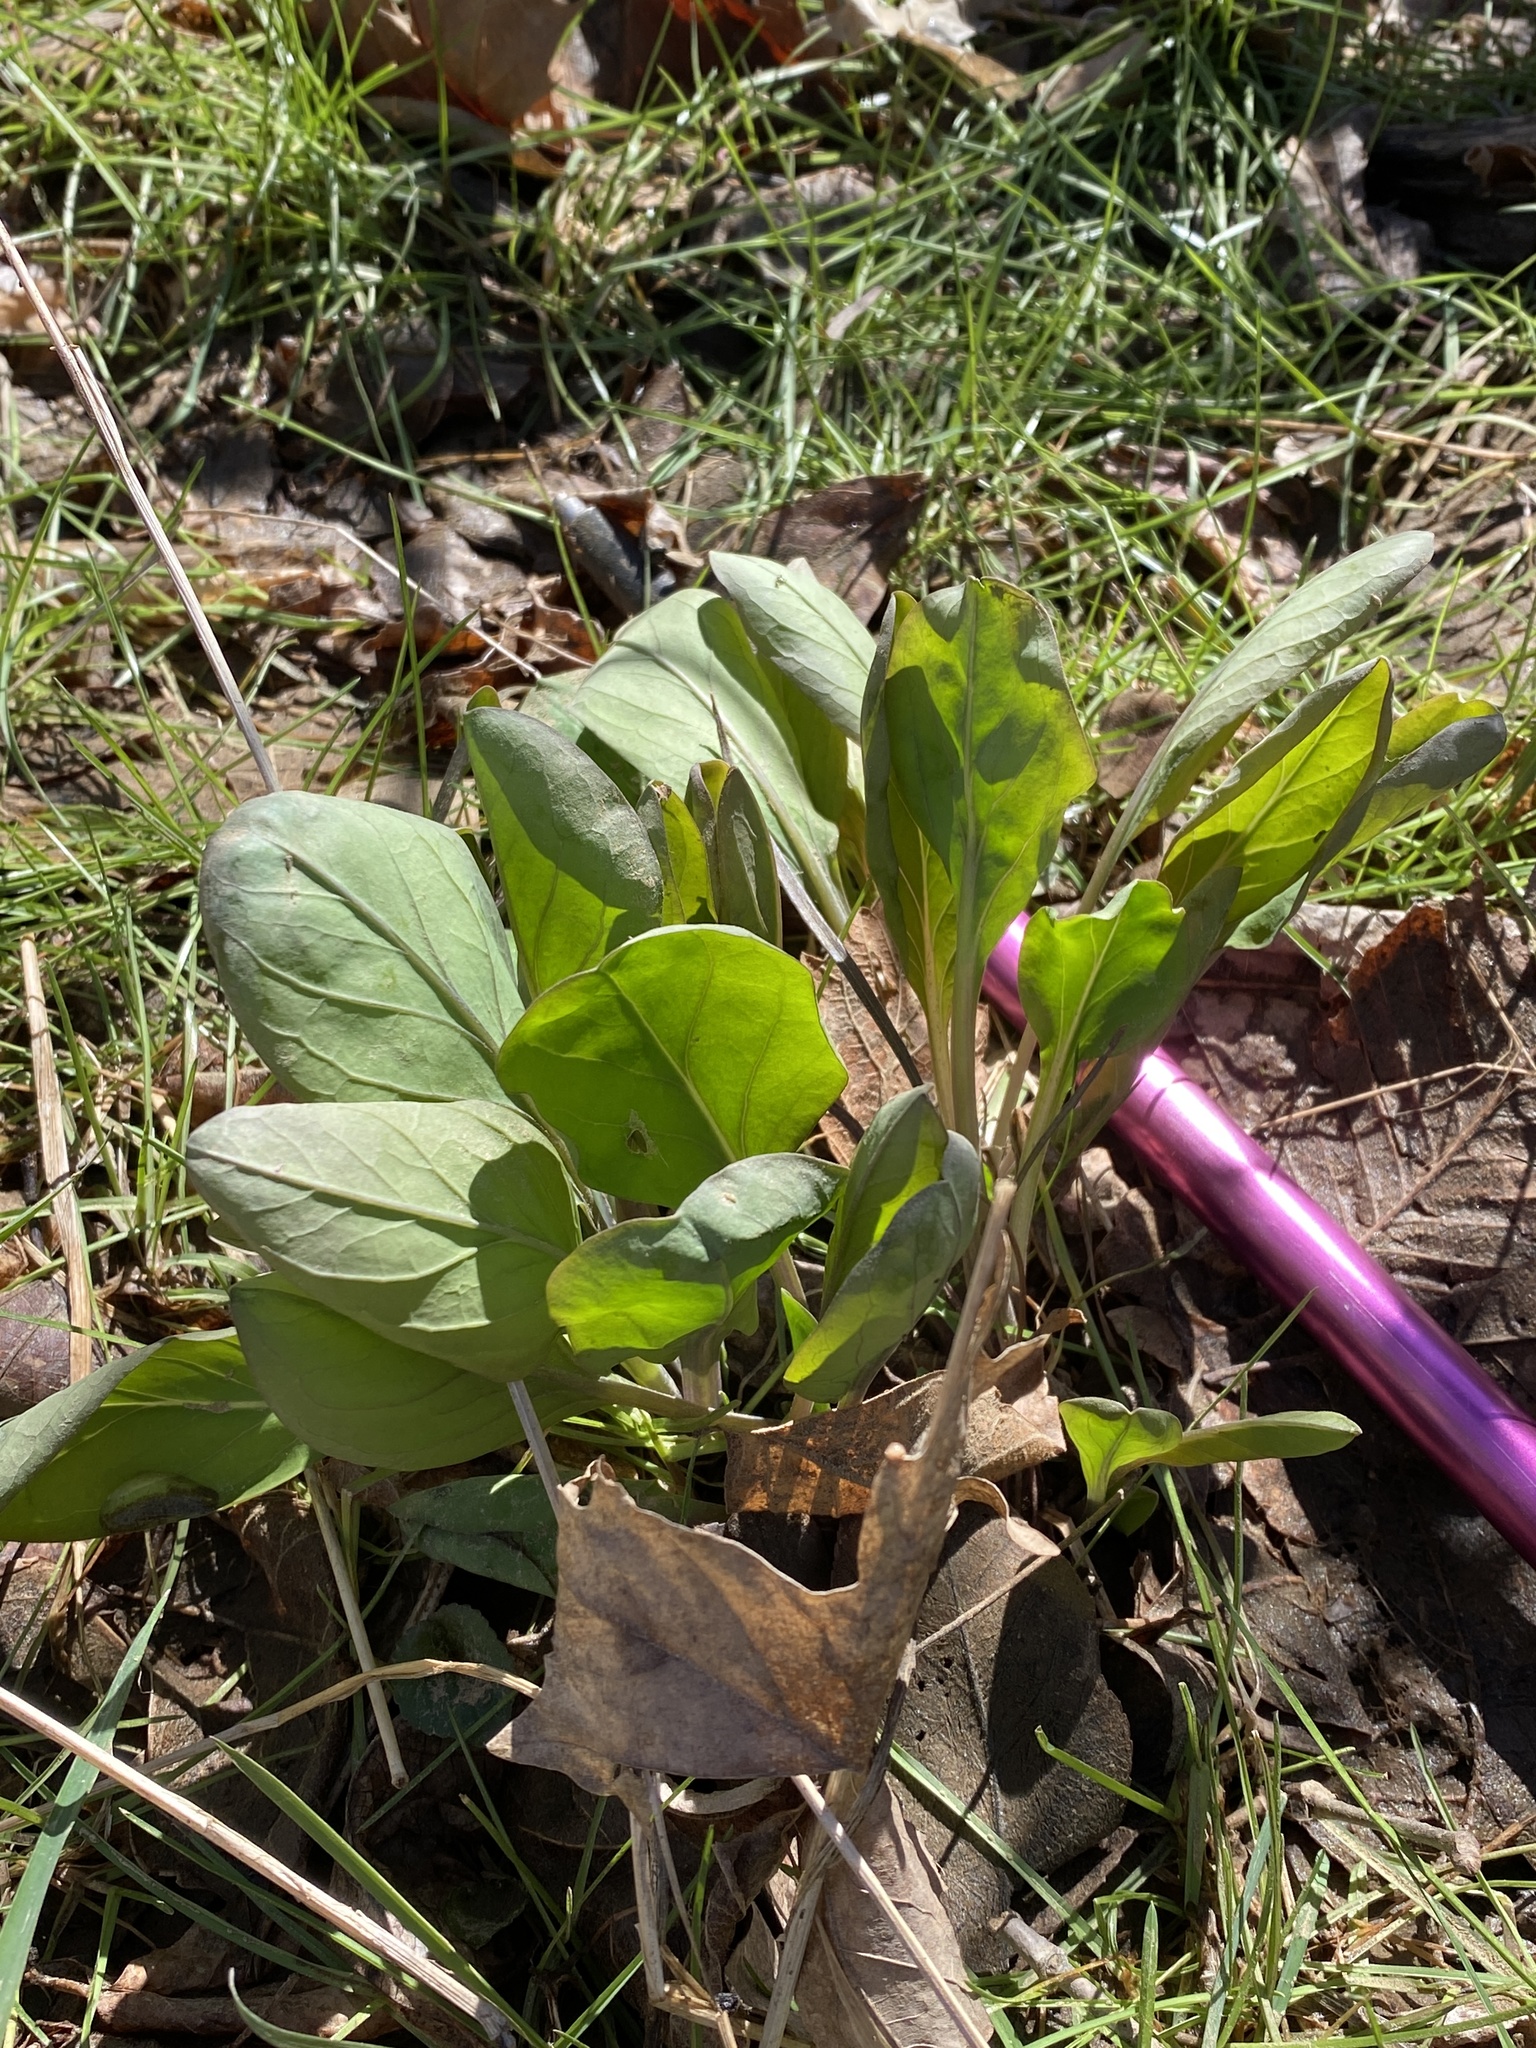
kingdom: Plantae
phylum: Tracheophyta
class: Magnoliopsida
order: Boraginales
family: Boraginaceae
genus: Mertensia
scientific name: Mertensia virginica
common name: Virginia bluebells
